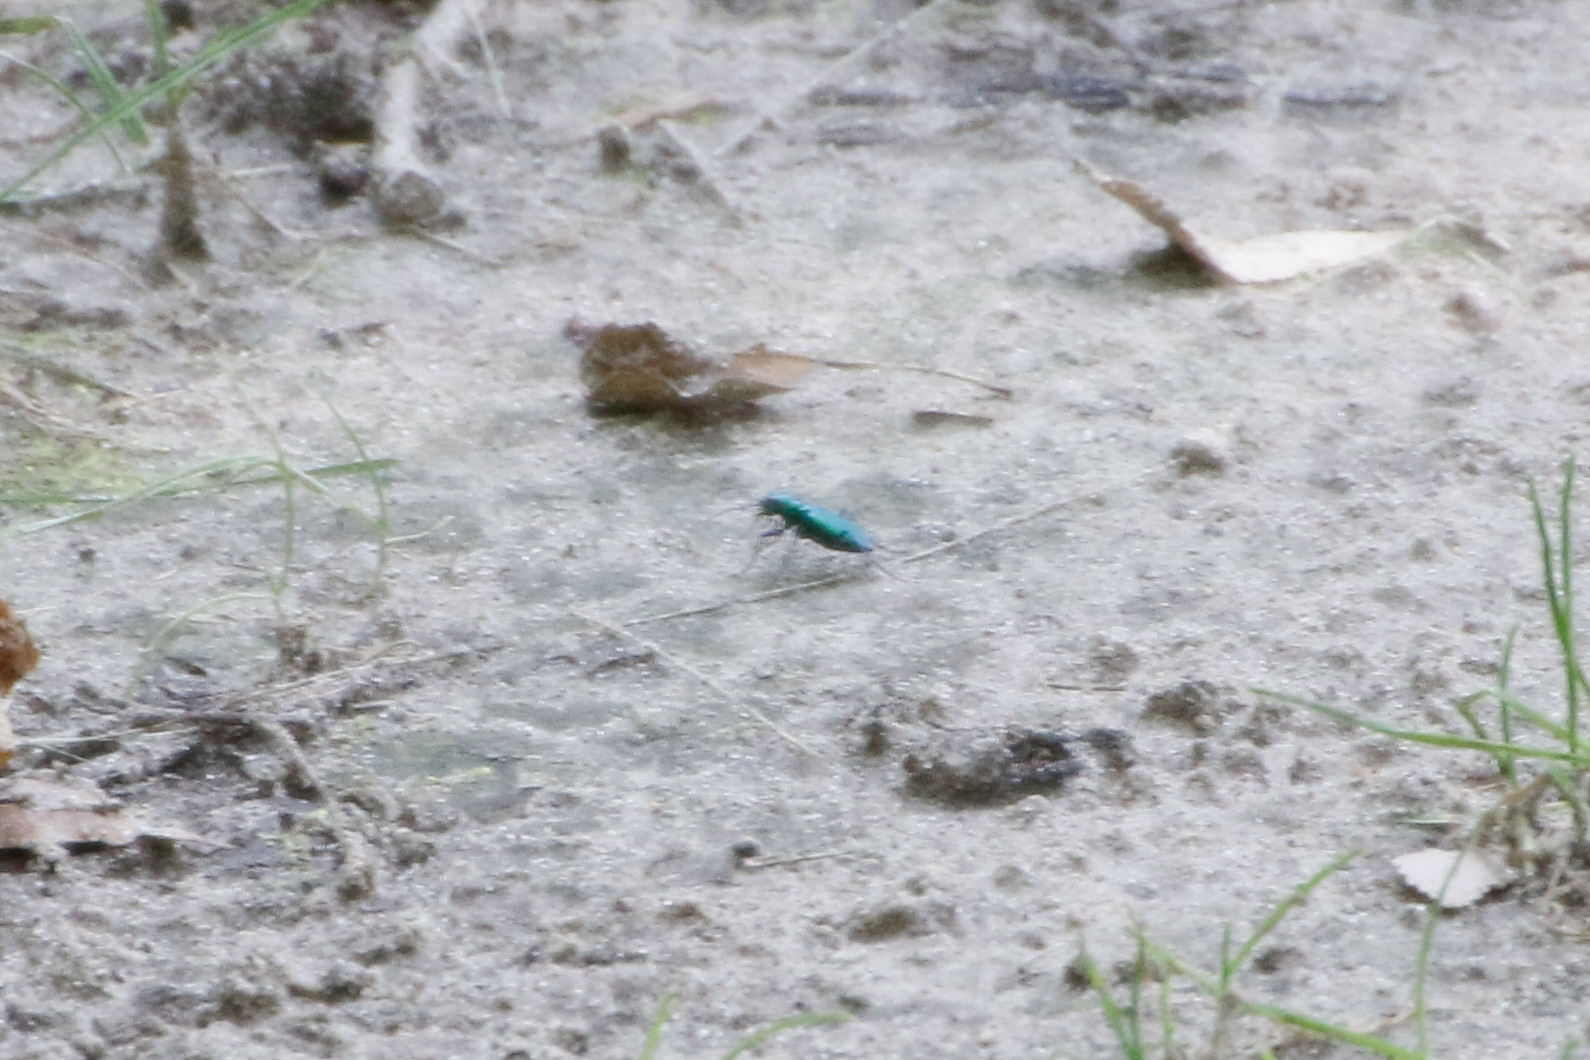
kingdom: Animalia
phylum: Arthropoda
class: Insecta
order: Coleoptera
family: Carabidae
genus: Cicindela
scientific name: Cicindela sexguttata
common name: Six-spotted tiger beetle
